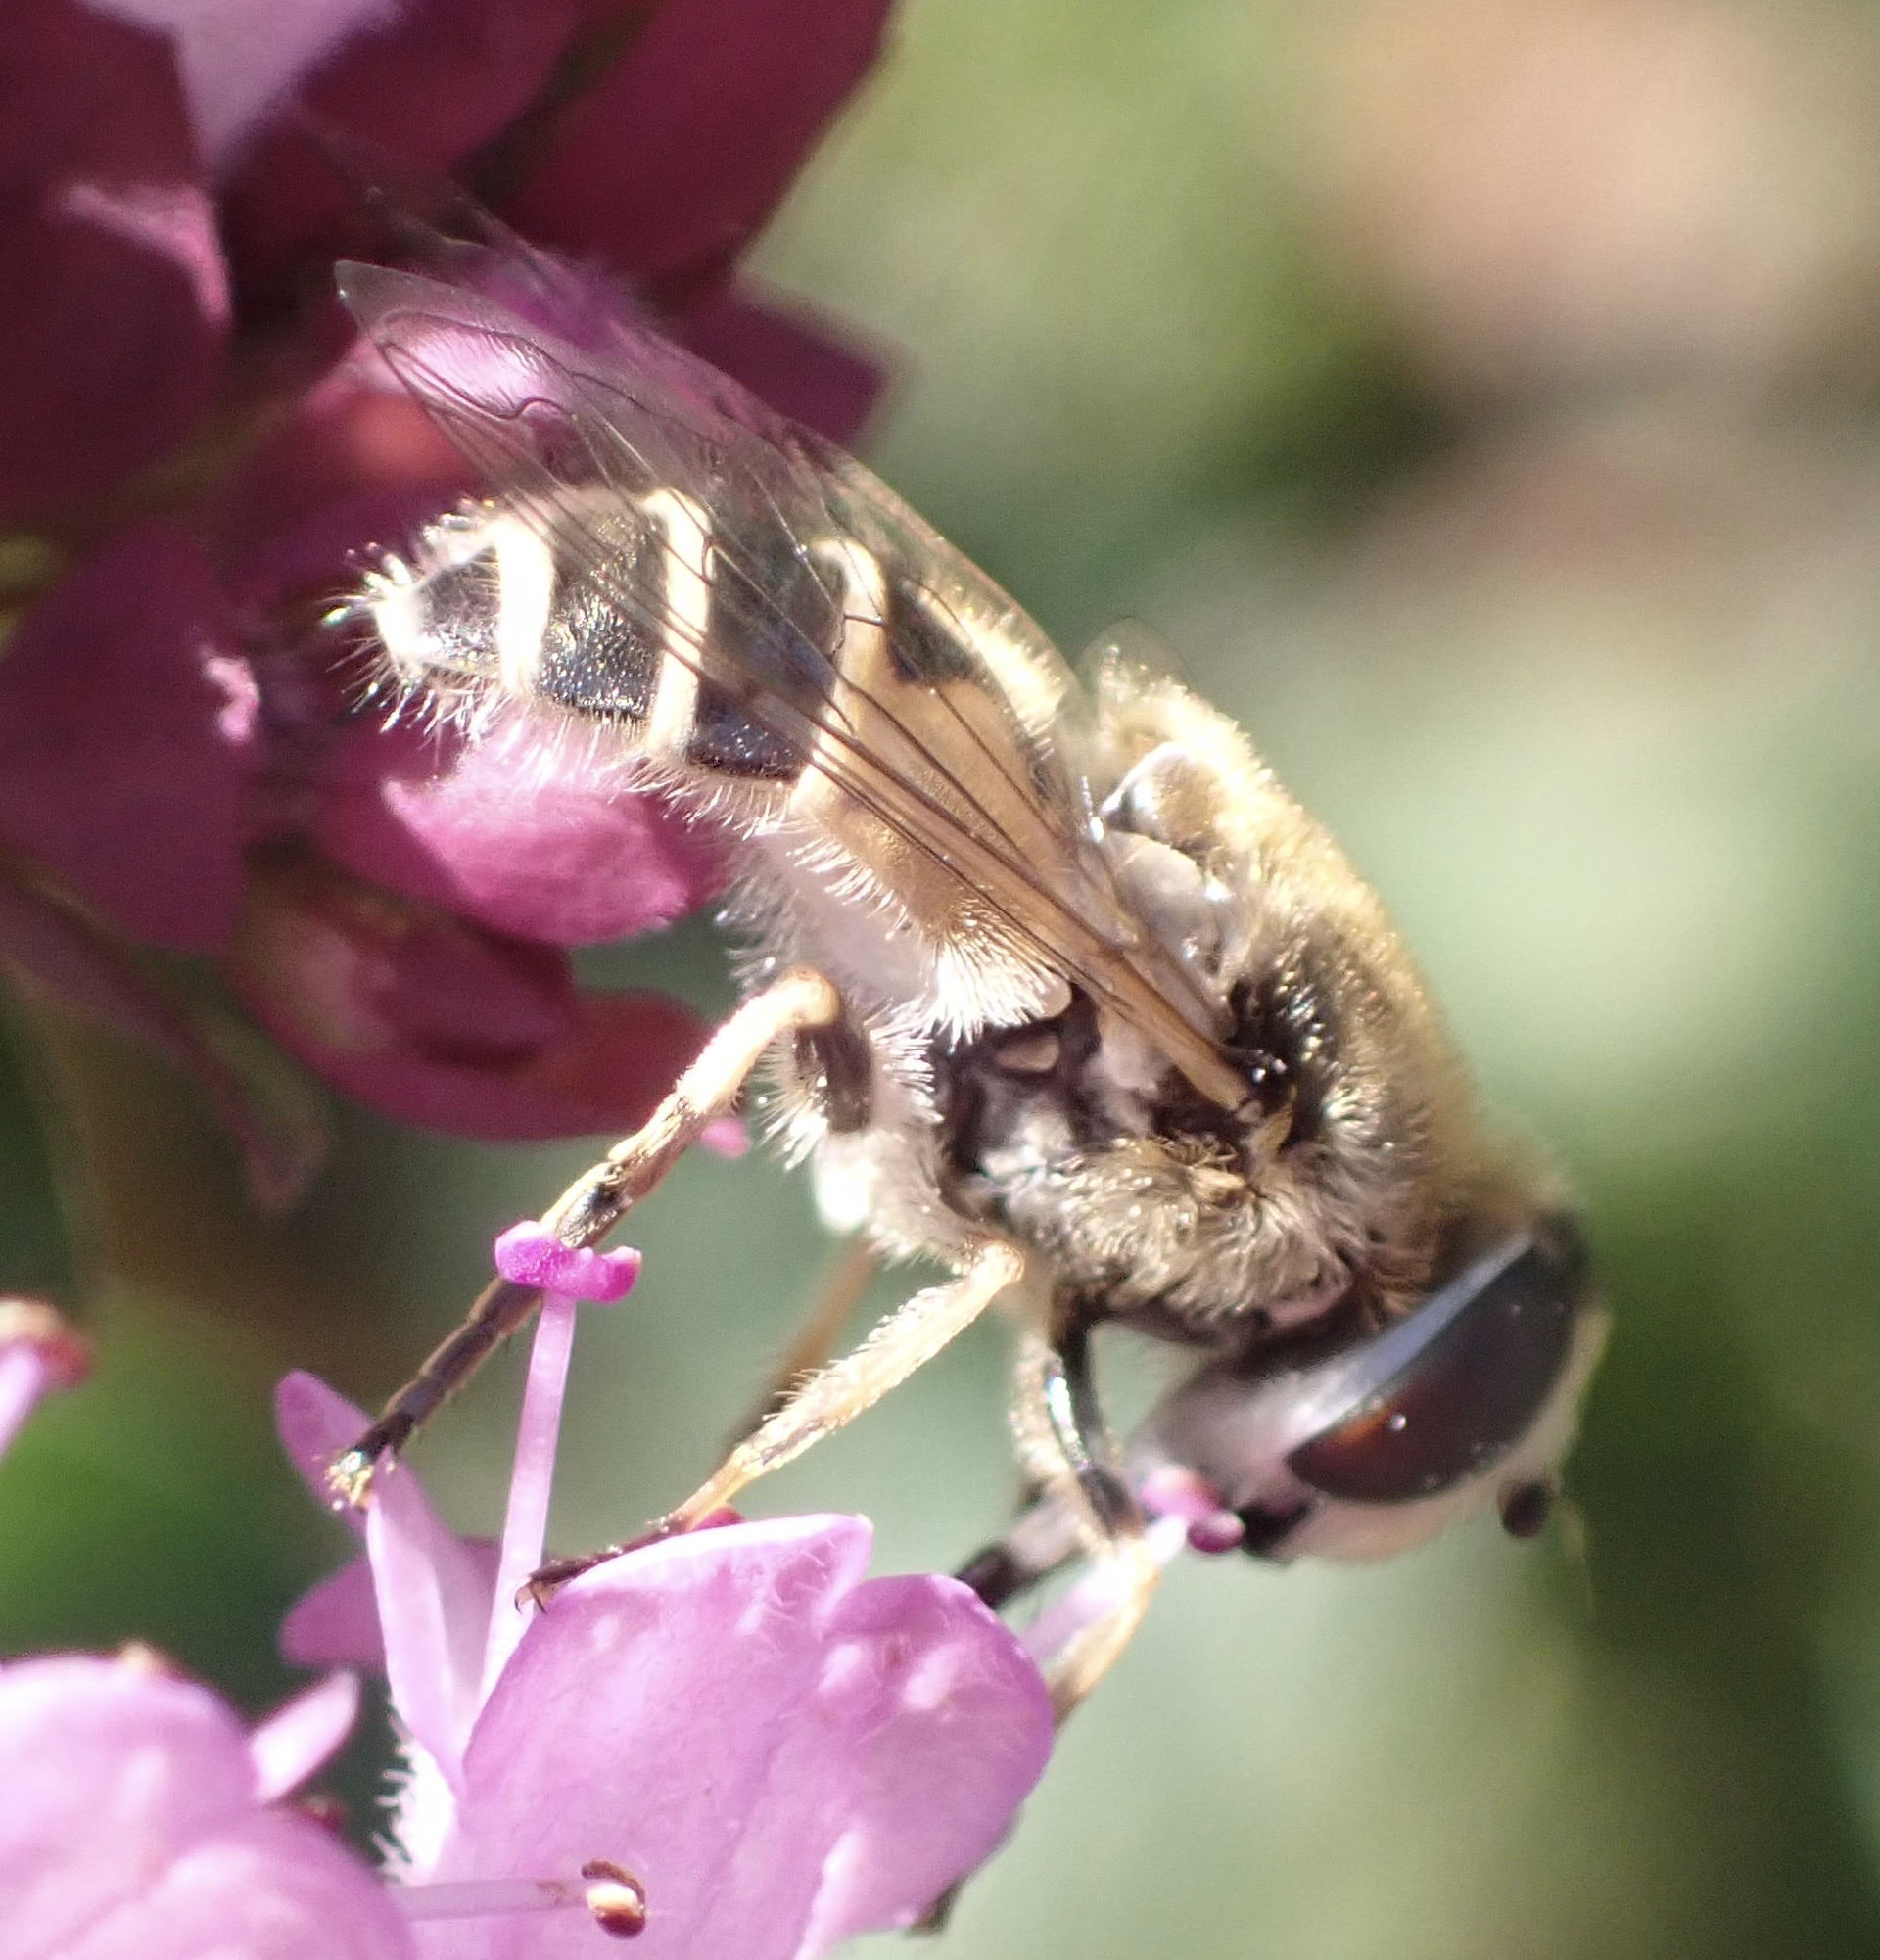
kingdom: Animalia
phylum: Arthropoda
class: Insecta
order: Diptera
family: Syrphidae
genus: Eristalis
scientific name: Eristalis arbustorum
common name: Hover fly
